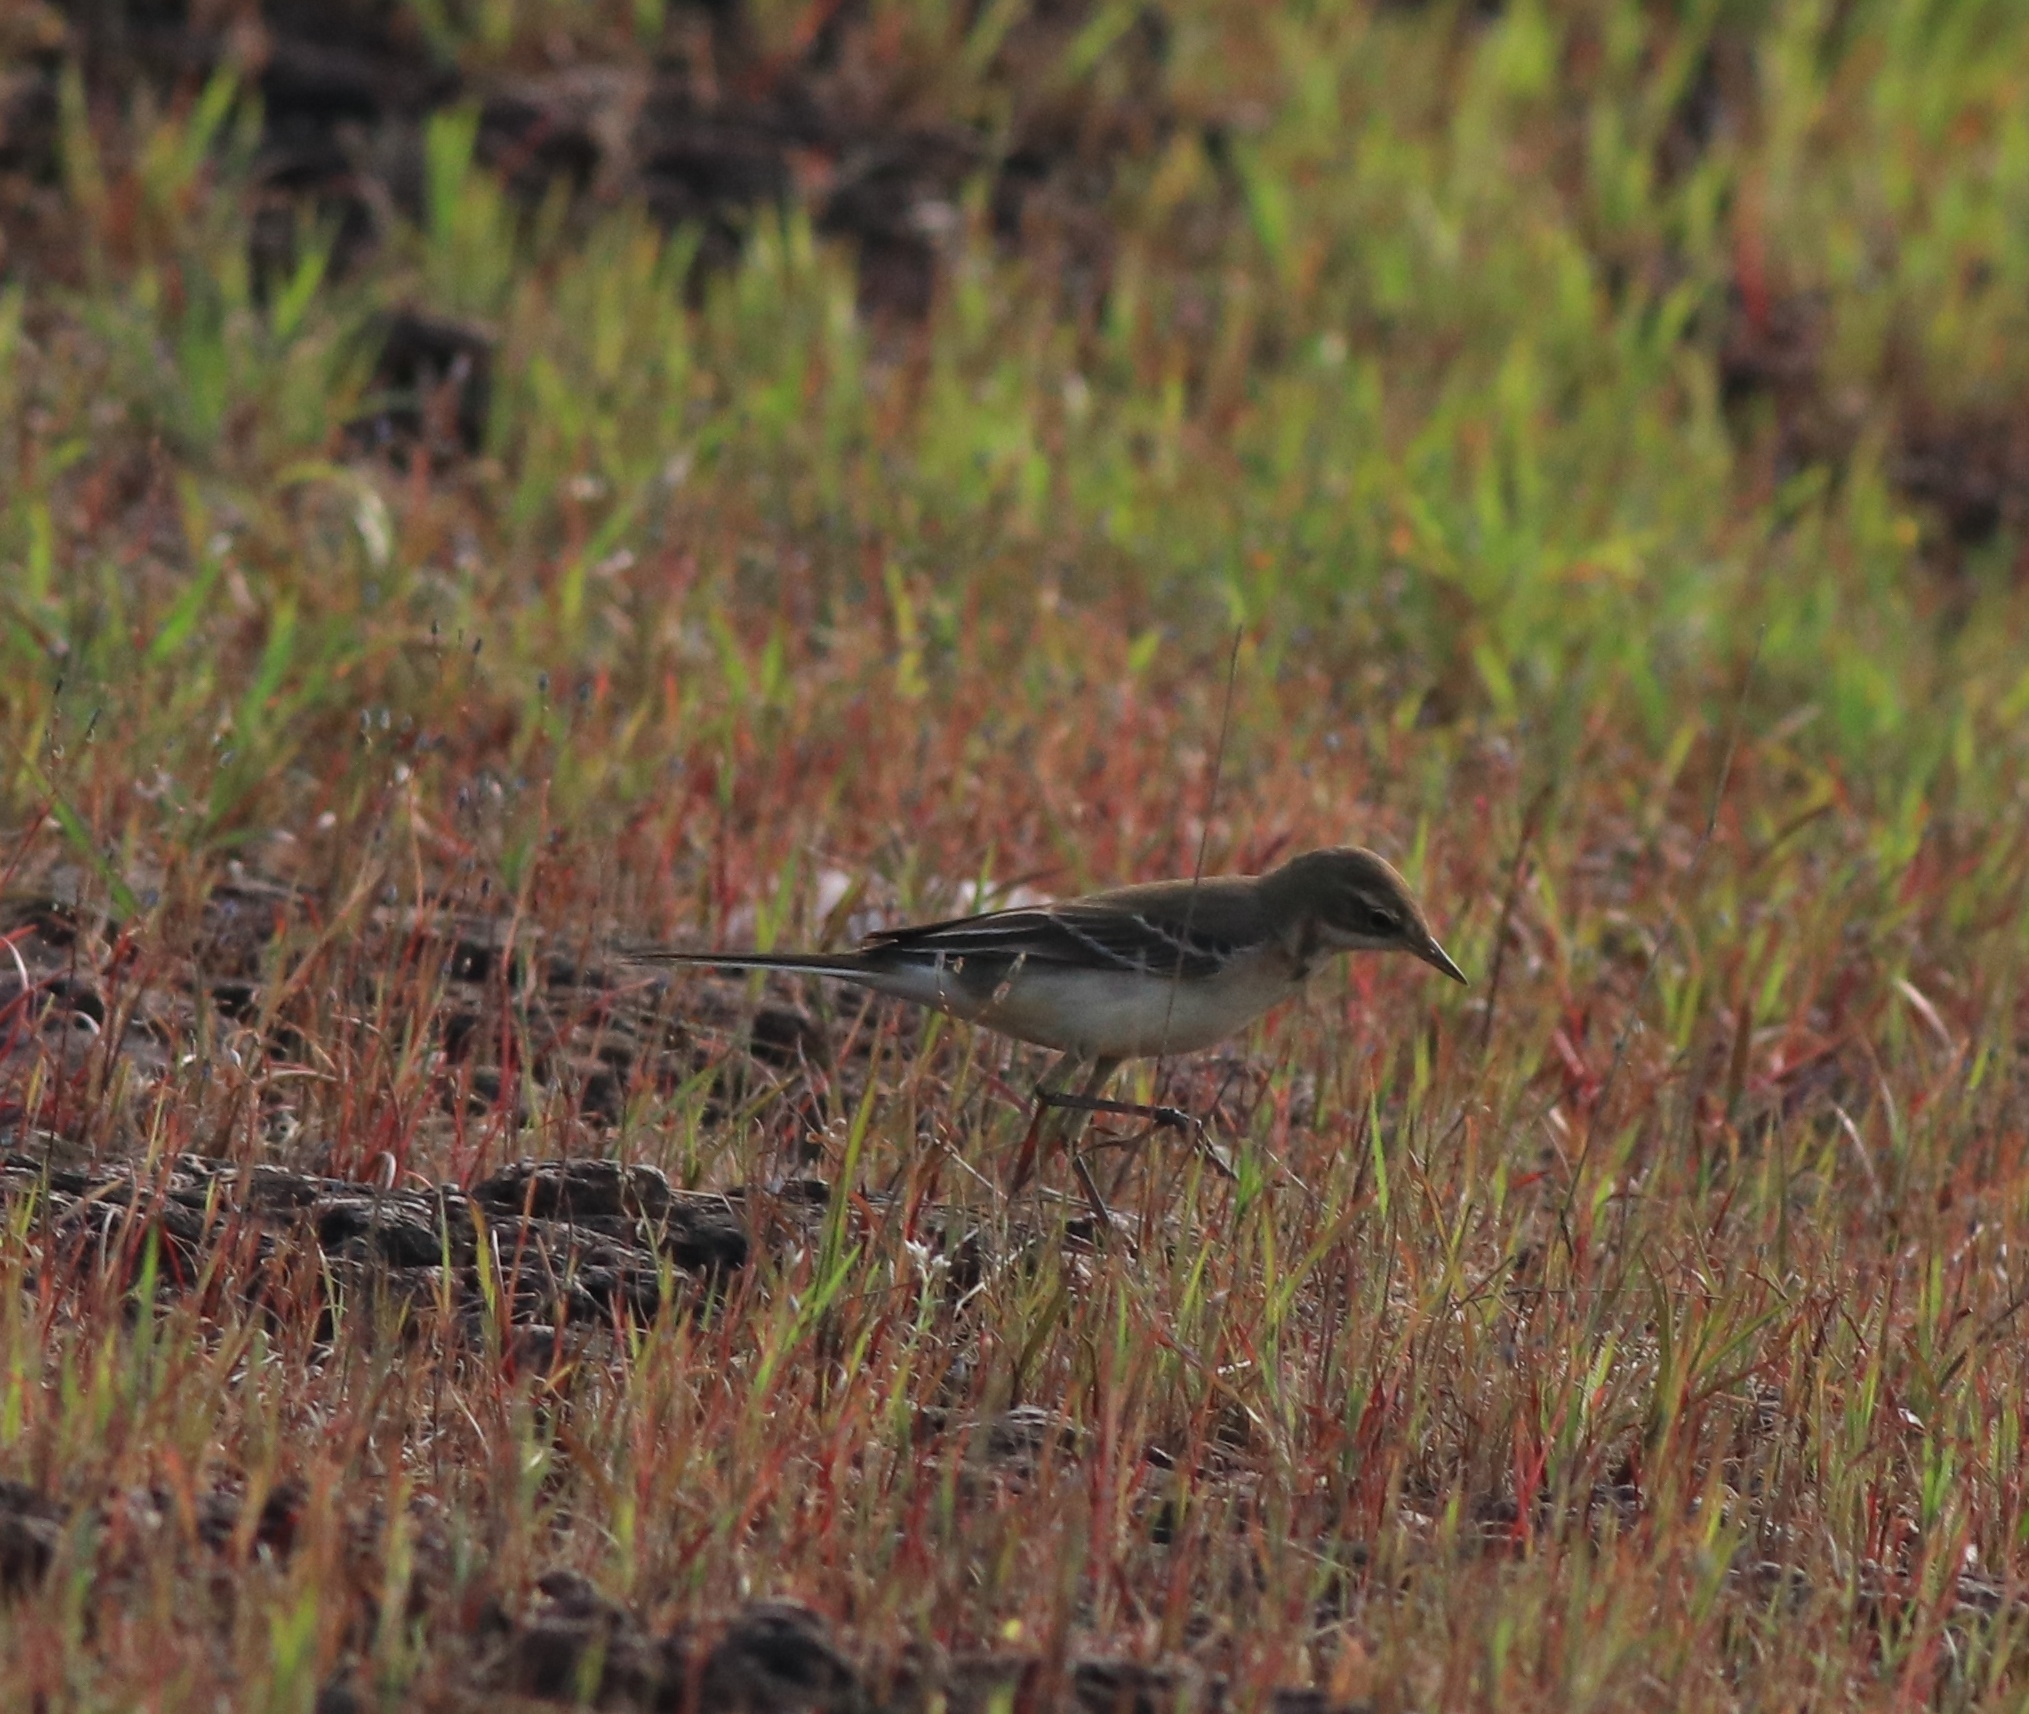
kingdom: Animalia
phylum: Chordata
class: Aves
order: Passeriformes
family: Motacillidae
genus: Motacilla
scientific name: Motacilla flava
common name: Western yellow wagtail
